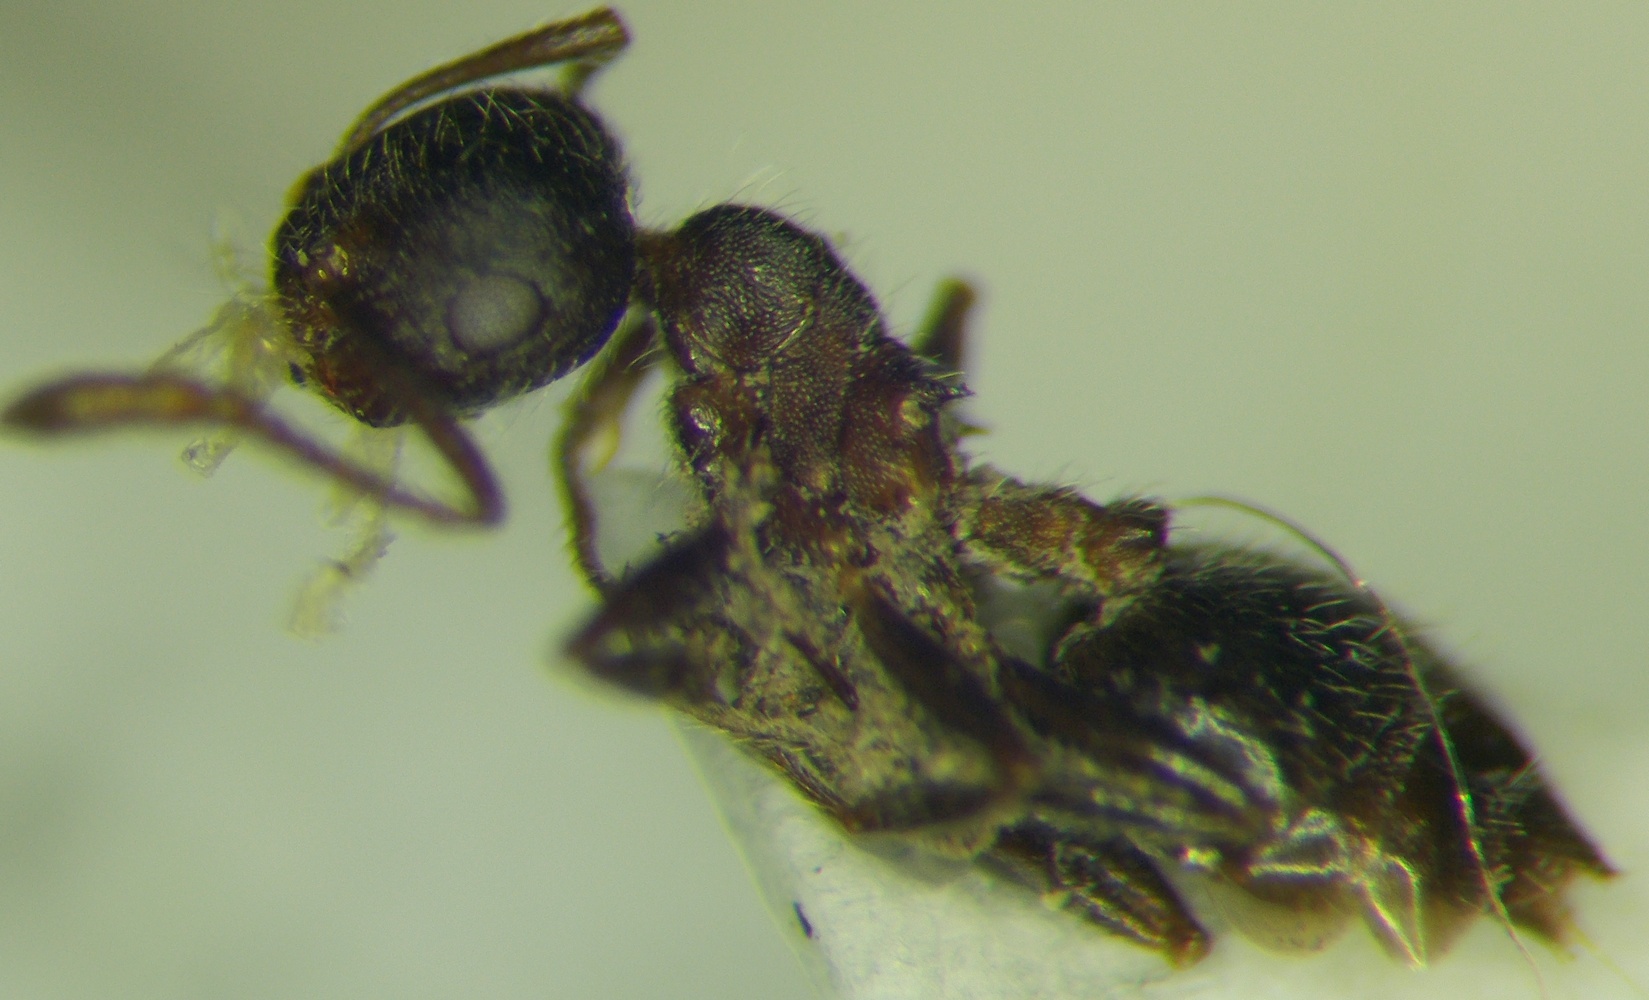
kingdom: Animalia
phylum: Arthropoda
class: Insecta
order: Hymenoptera
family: Formicidae
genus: Crematogaster
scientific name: Crematogaster opaca
